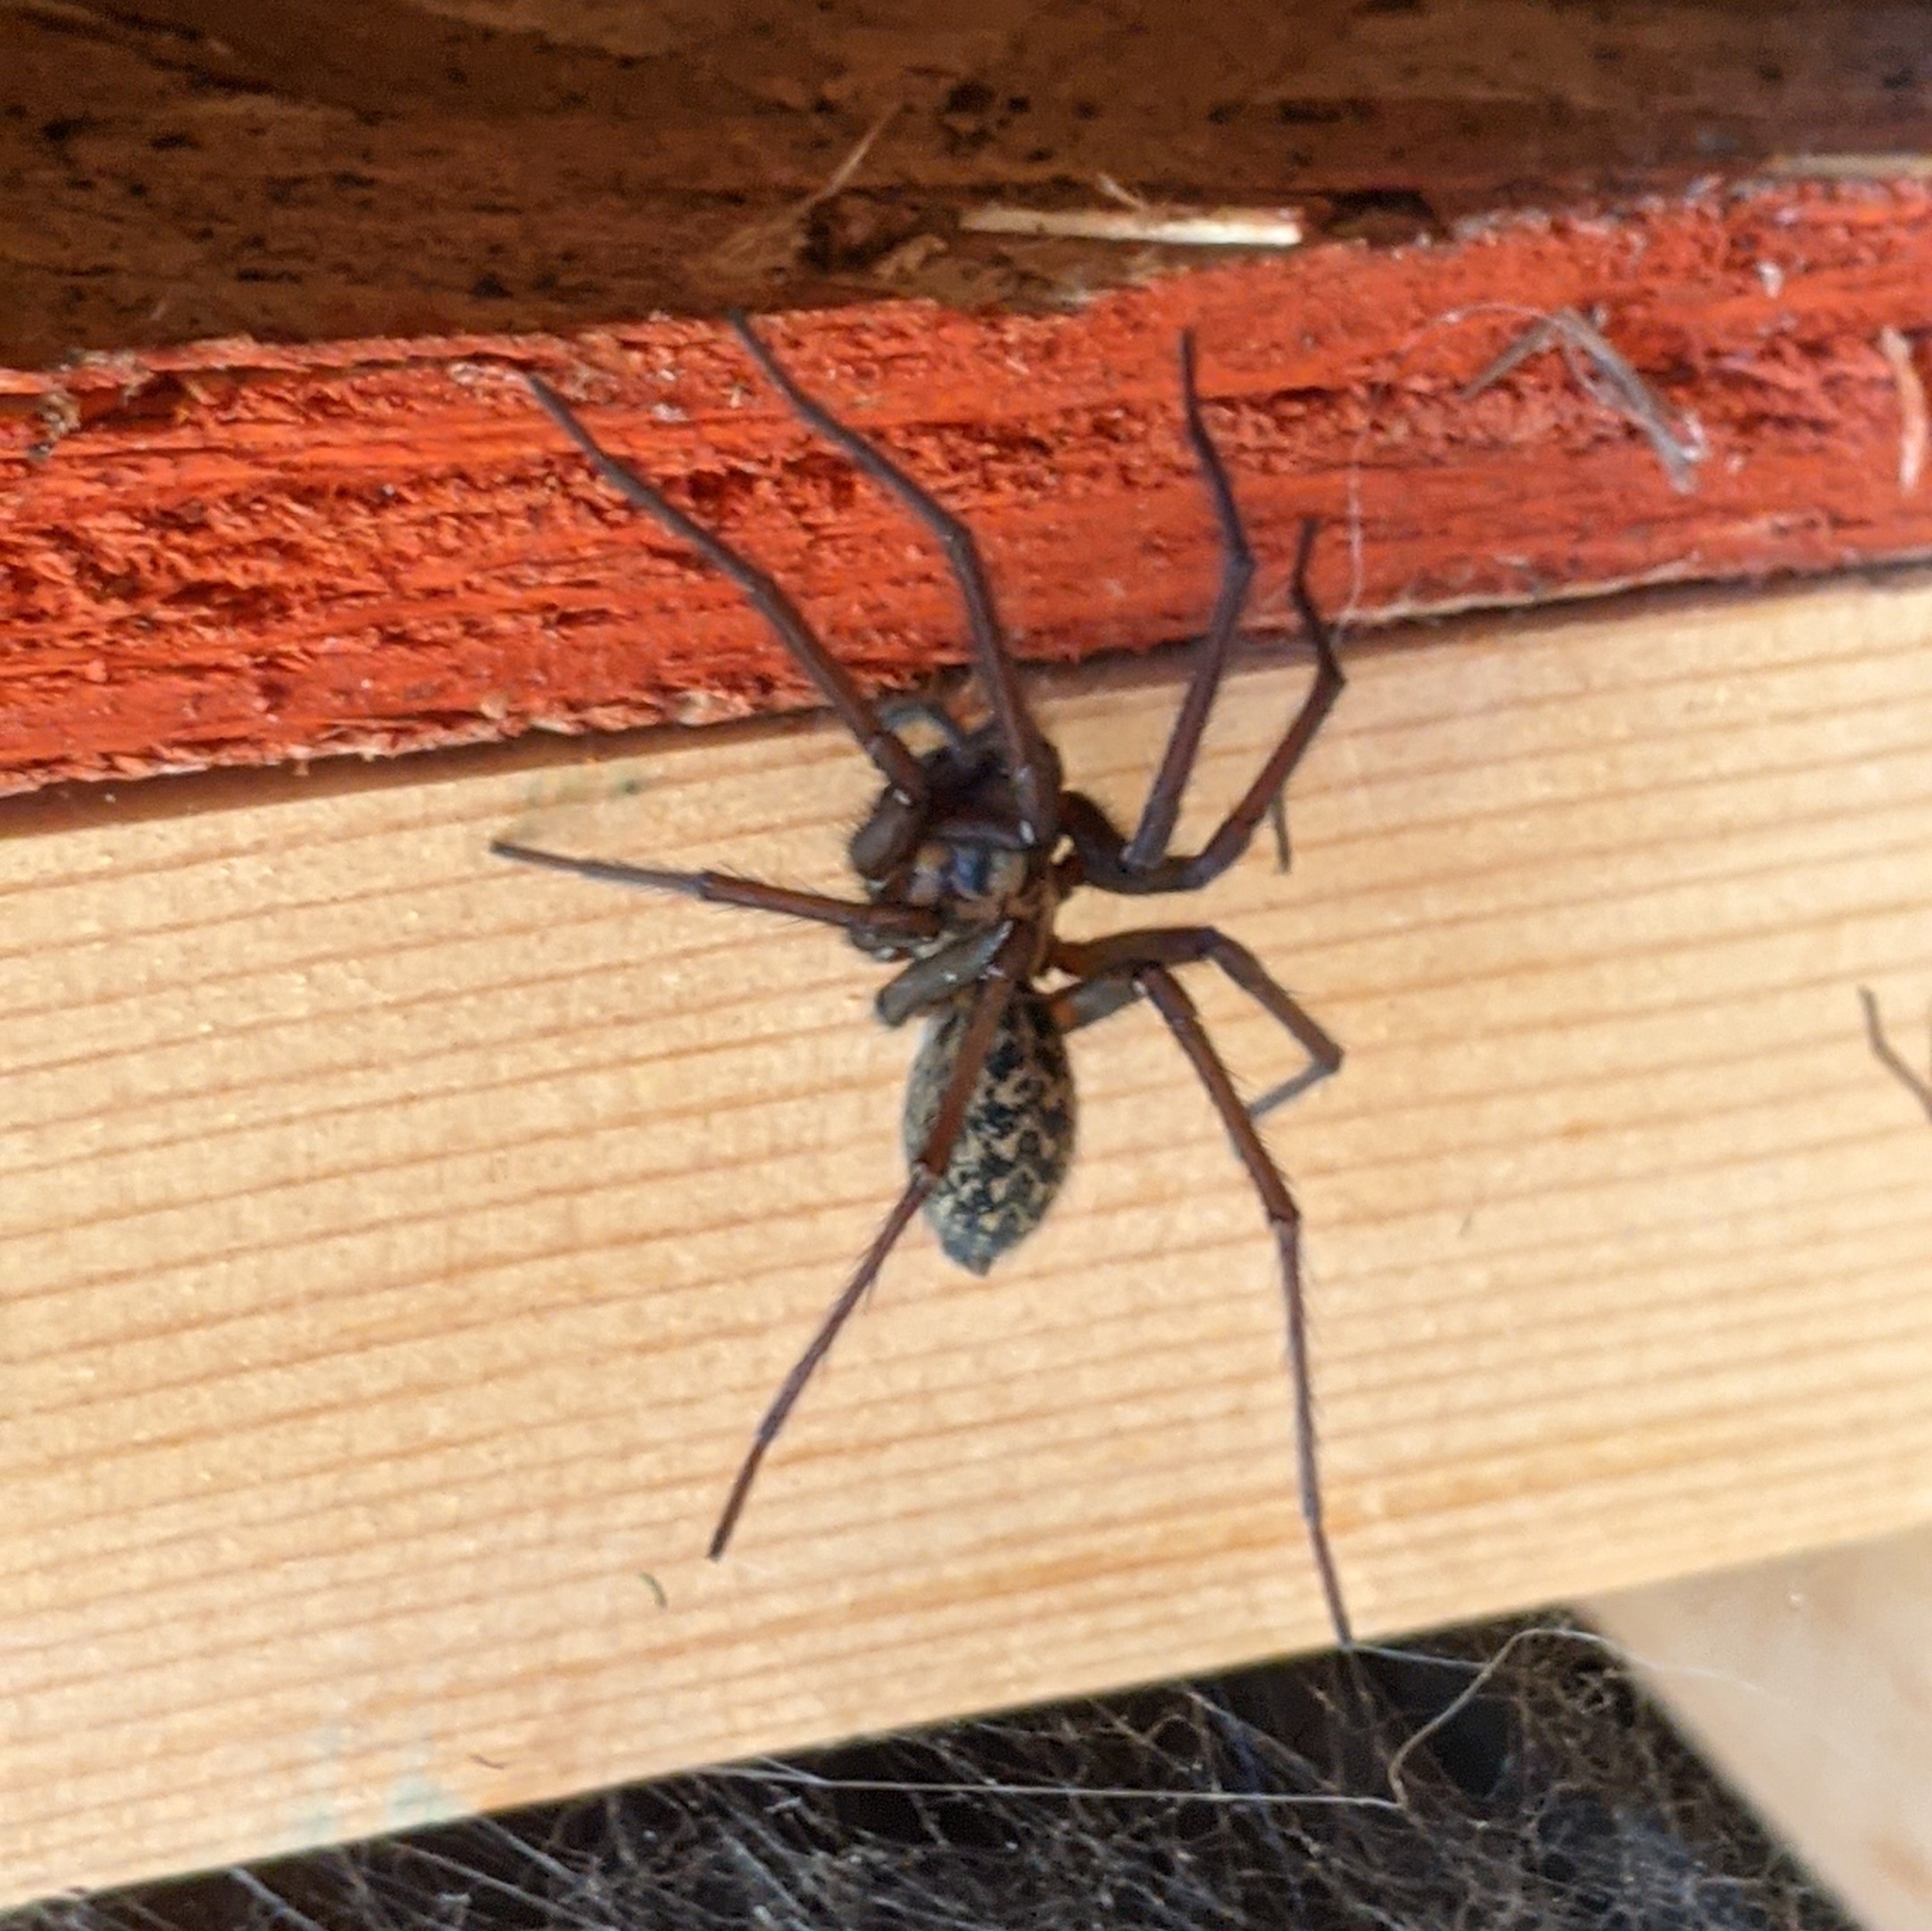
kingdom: Animalia
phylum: Arthropoda
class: Arachnida
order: Araneae
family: Agelenidae
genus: Eratigena
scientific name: Eratigena duellica
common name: Giant house spider
